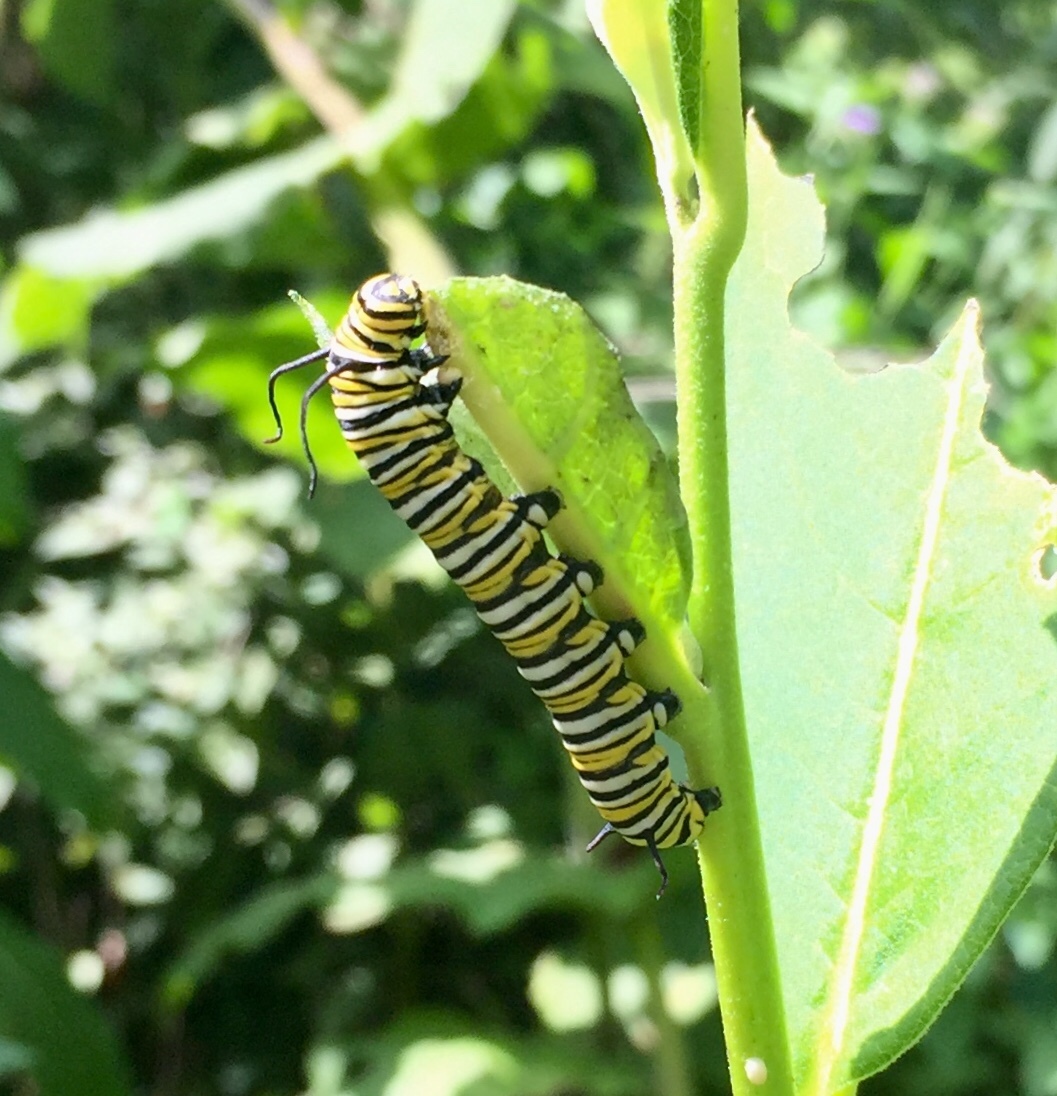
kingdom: Animalia
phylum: Arthropoda
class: Insecta
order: Lepidoptera
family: Nymphalidae
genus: Danaus
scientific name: Danaus plexippus
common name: Monarch
